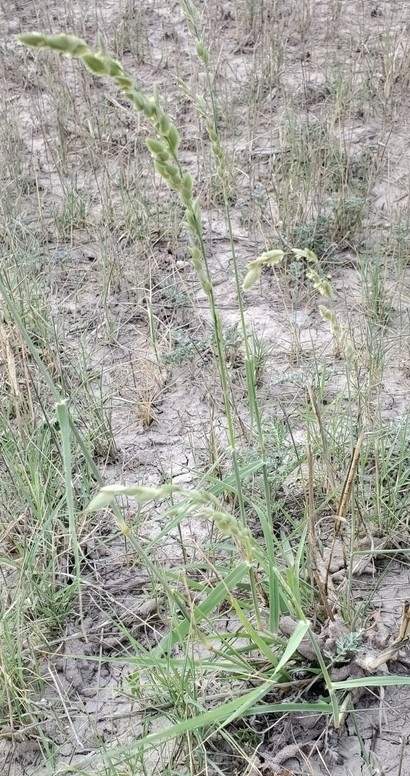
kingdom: Plantae
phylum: Tracheophyta
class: Liliopsida
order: Poales
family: Poaceae
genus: Eragrostis
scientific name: Eragrostis superba
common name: Wilman lovegrass
